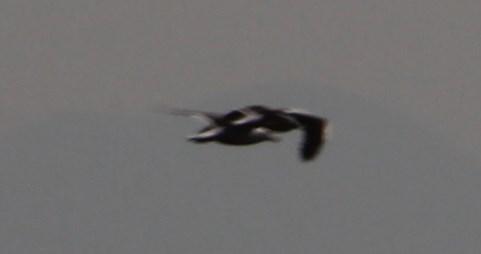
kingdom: Animalia
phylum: Chordata
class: Aves
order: Charadriiformes
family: Laridae
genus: Larus
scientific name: Larus dominicanus
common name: Kelp gull
